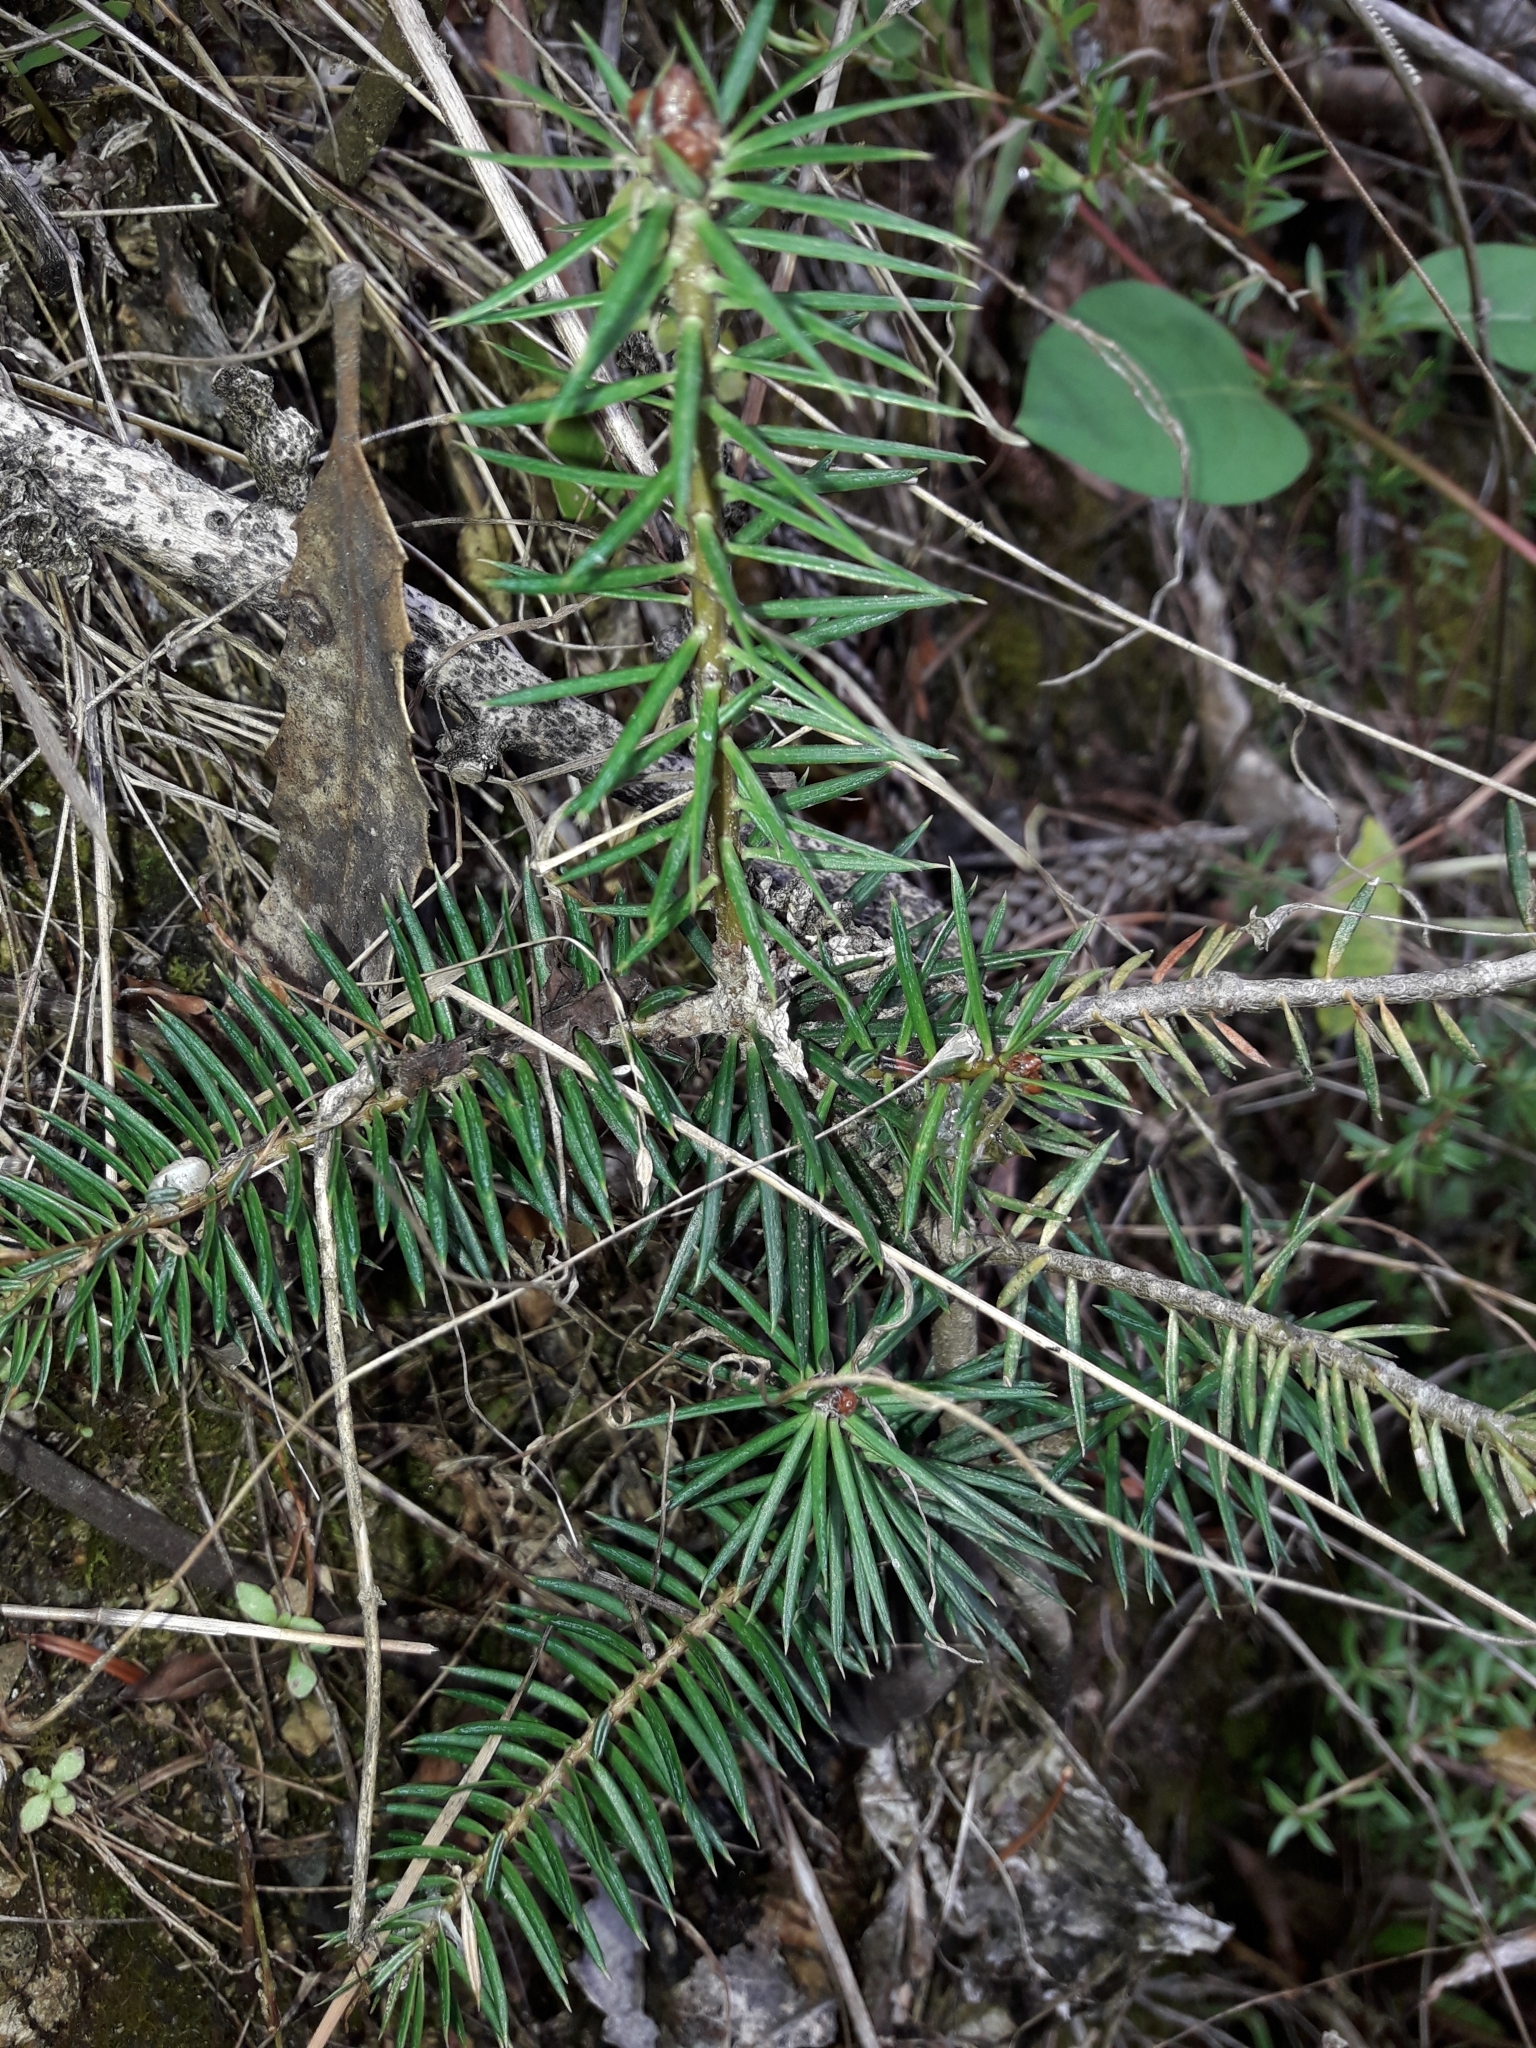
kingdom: Plantae
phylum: Tracheophyta
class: Pinopsida
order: Pinales
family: Pinaceae
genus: Pseudotsuga
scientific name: Pseudotsuga menziesii
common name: Douglas fir
